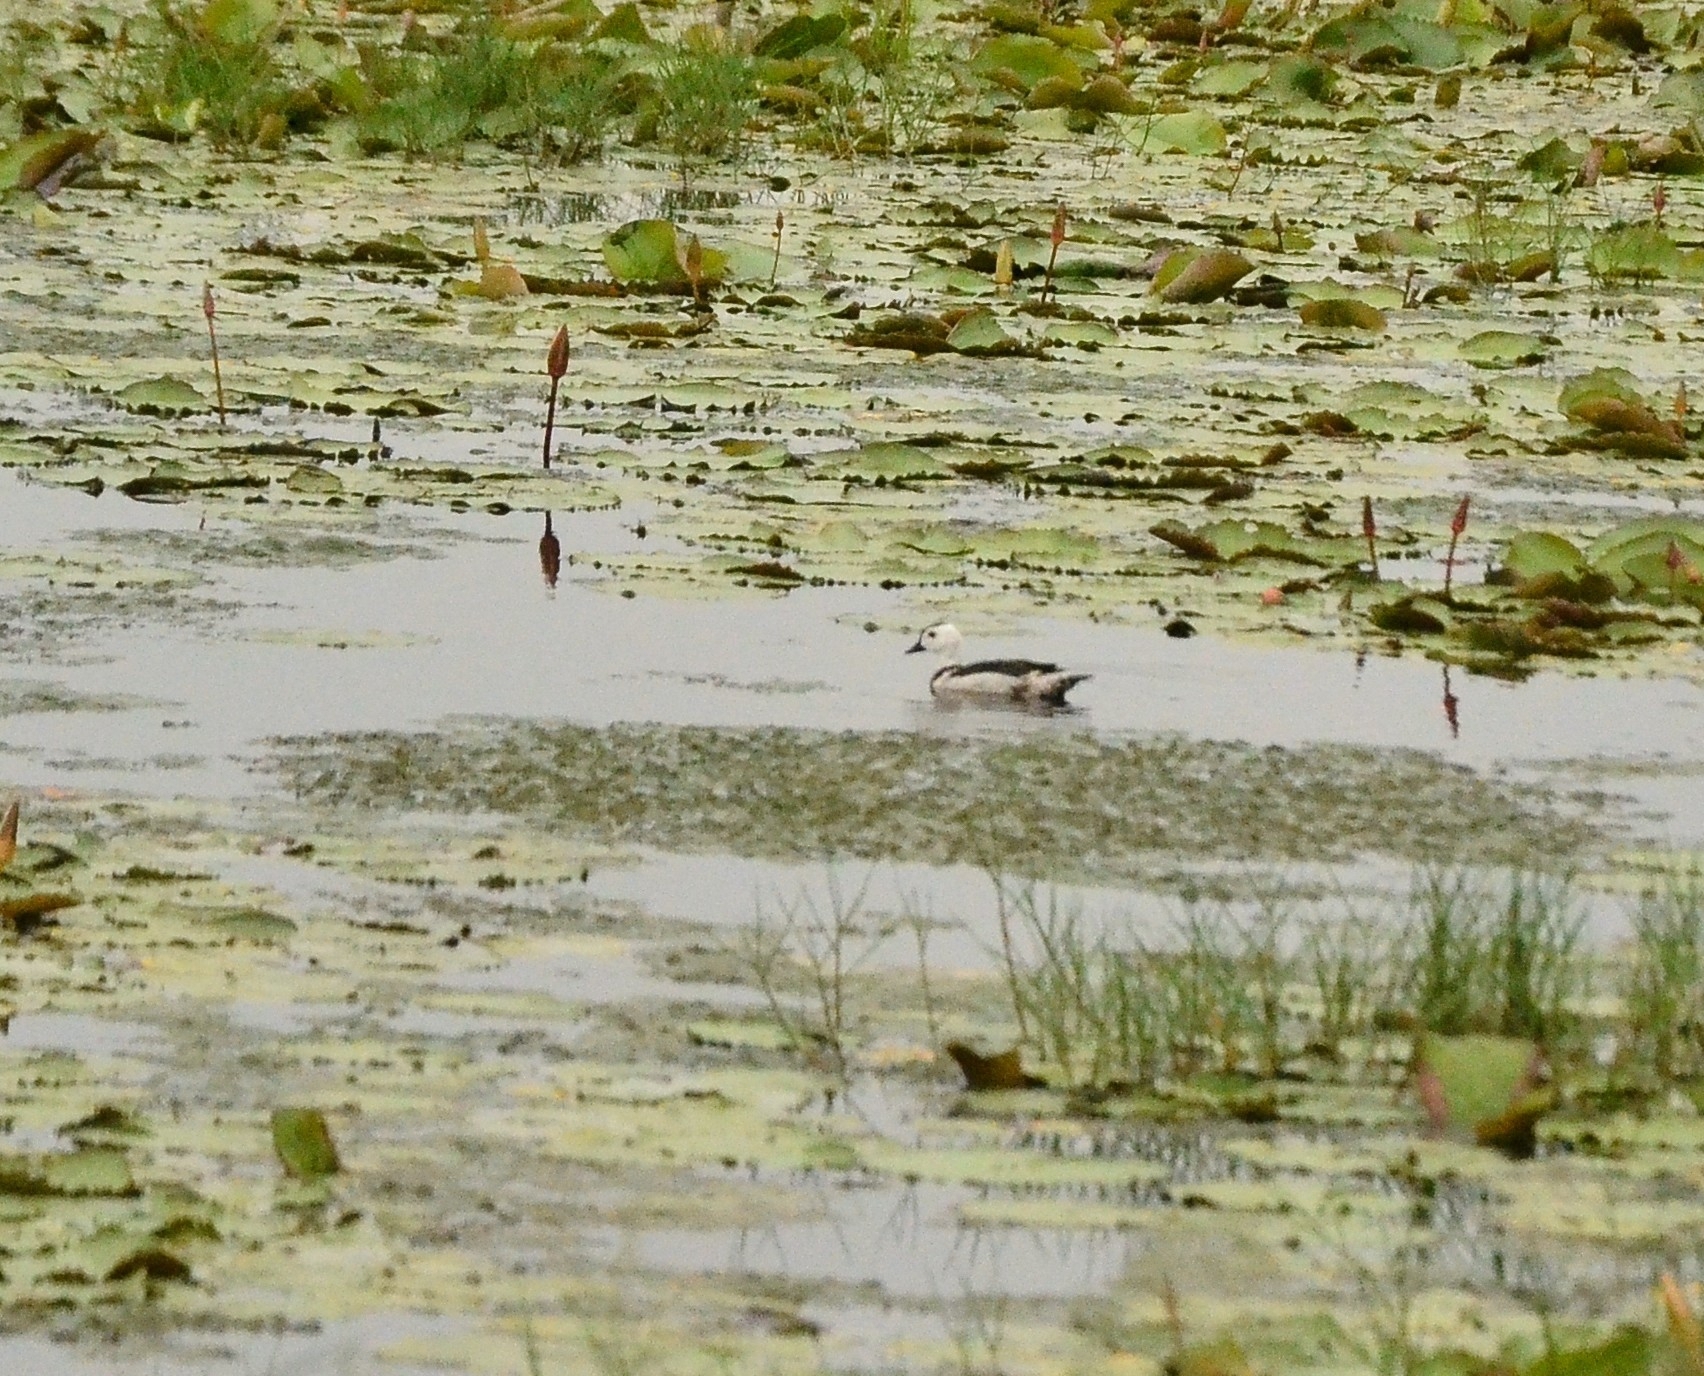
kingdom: Animalia
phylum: Chordata
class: Aves
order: Anseriformes
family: Anatidae
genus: Nettapus
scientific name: Nettapus coromandelianus
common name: Cotton pygmy-goose
